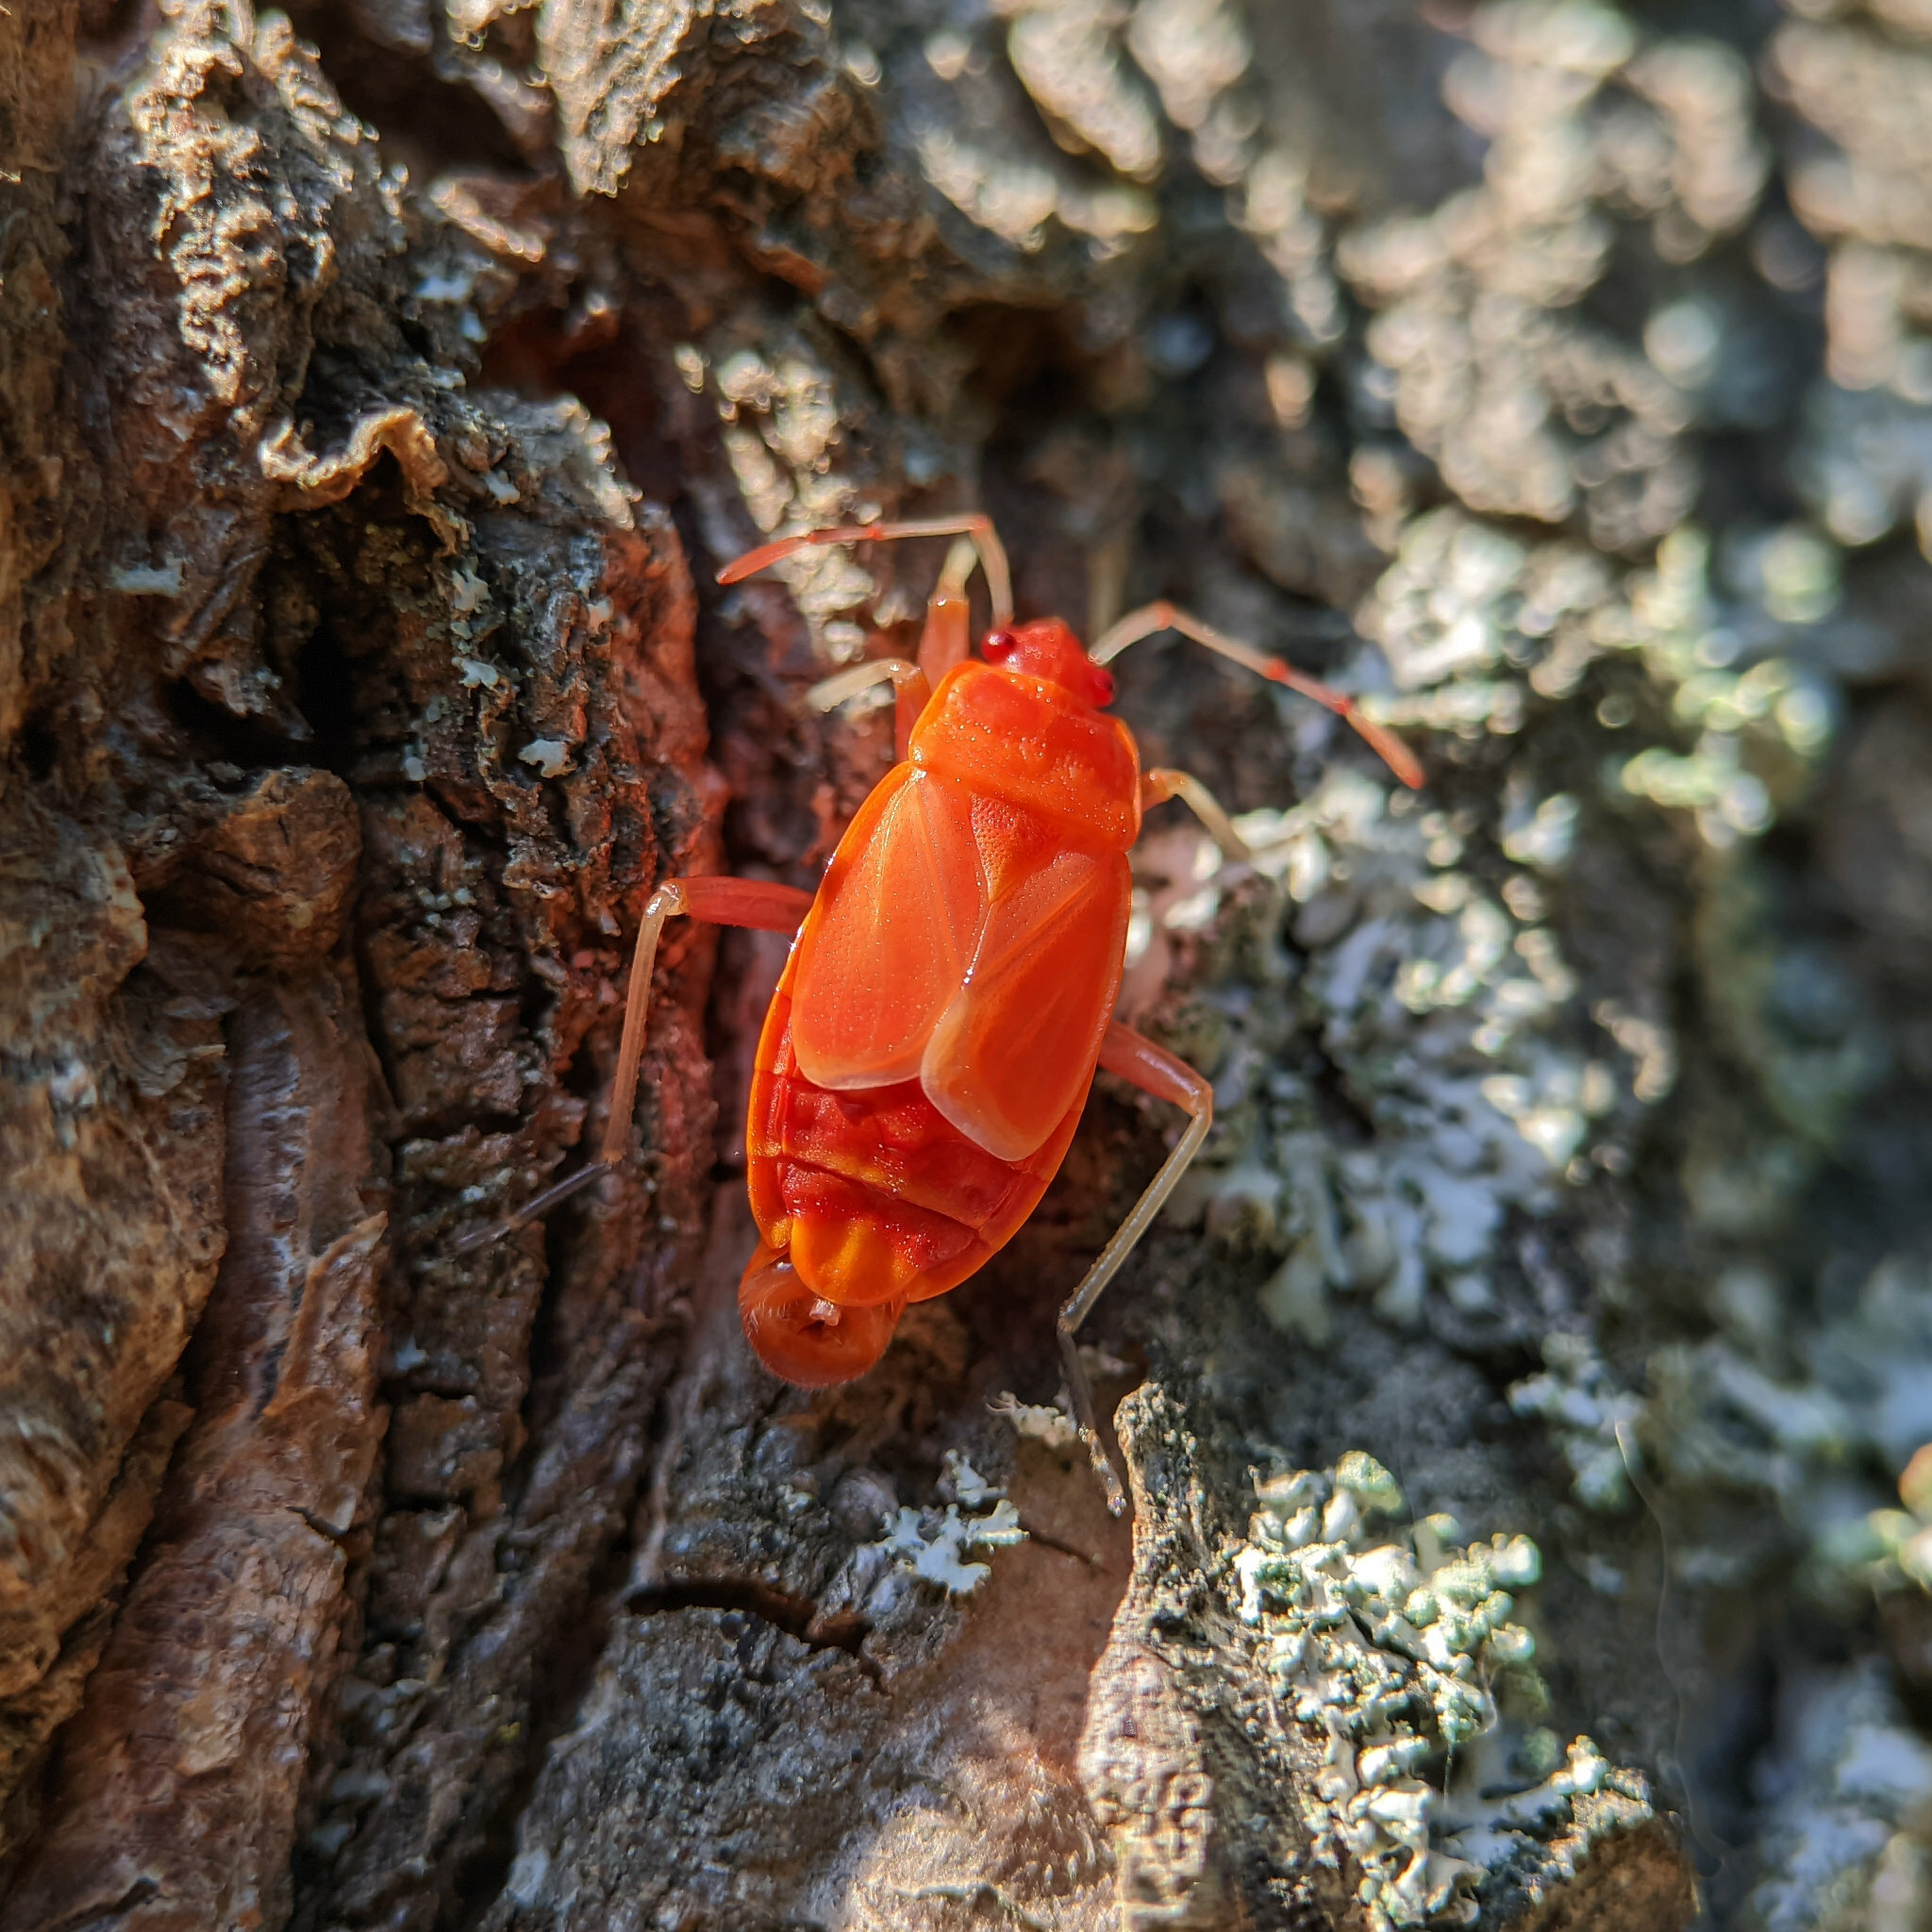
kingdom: Animalia
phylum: Arthropoda
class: Insecta
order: Hemiptera
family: Pyrrhocoridae
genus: Pyrrhocoris
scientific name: Pyrrhocoris apterus
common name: Firebug
